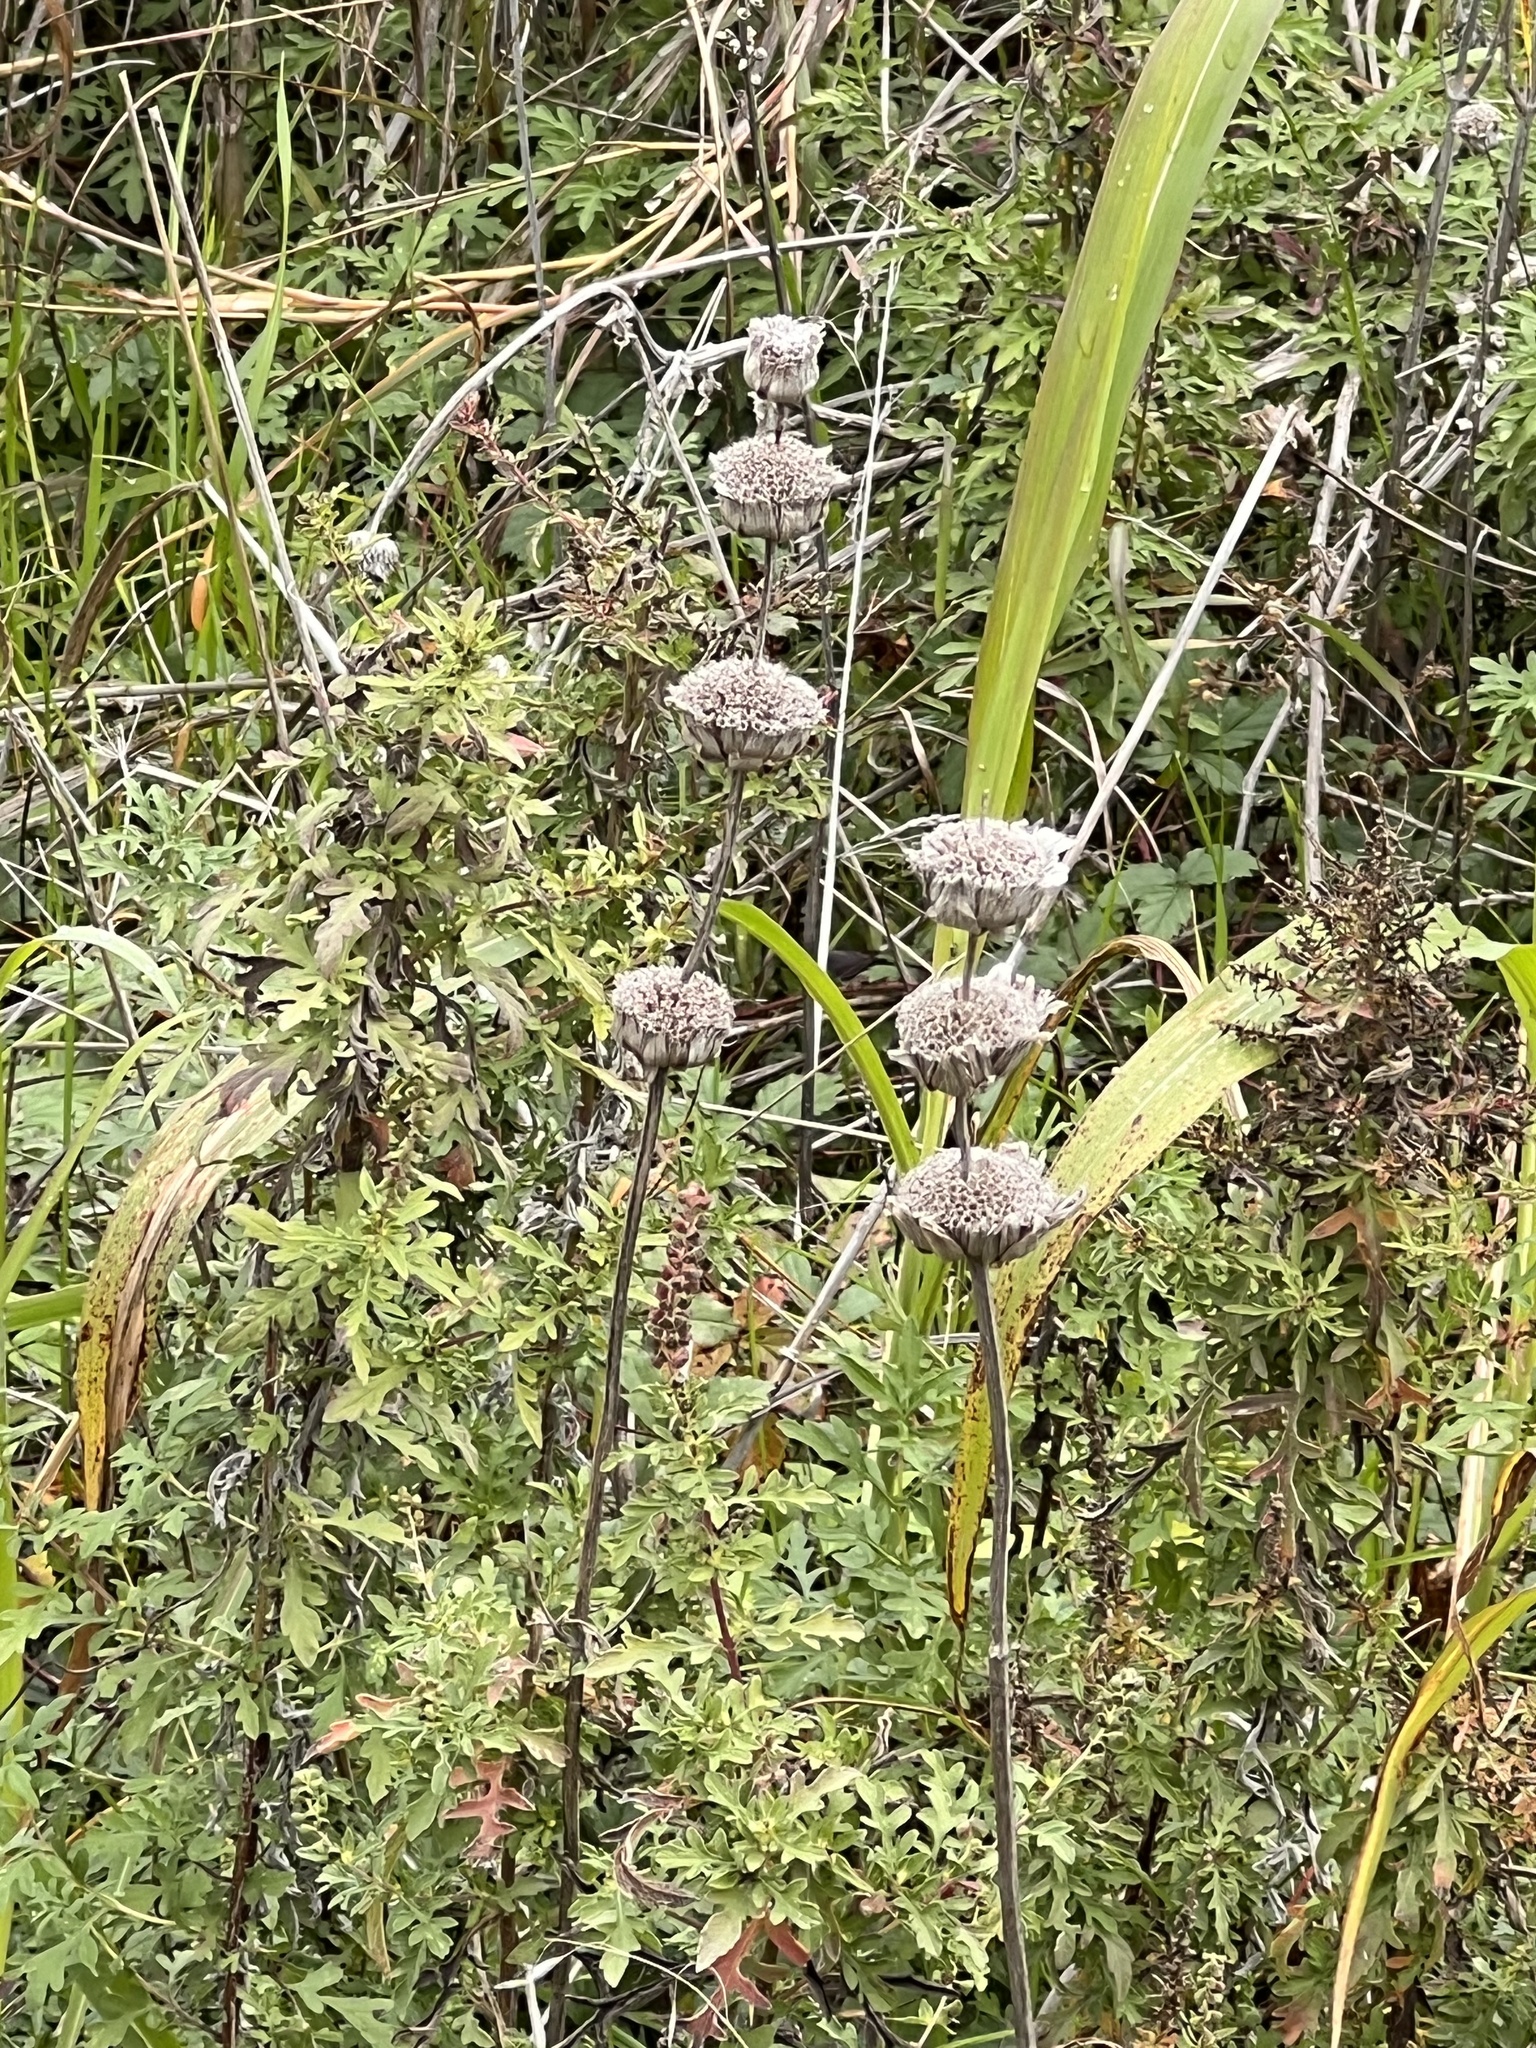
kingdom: Plantae
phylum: Tracheophyta
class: Magnoliopsida
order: Lamiales
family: Lamiaceae
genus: Monarda
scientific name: Monarda citriodora
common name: Lemon beebalm
